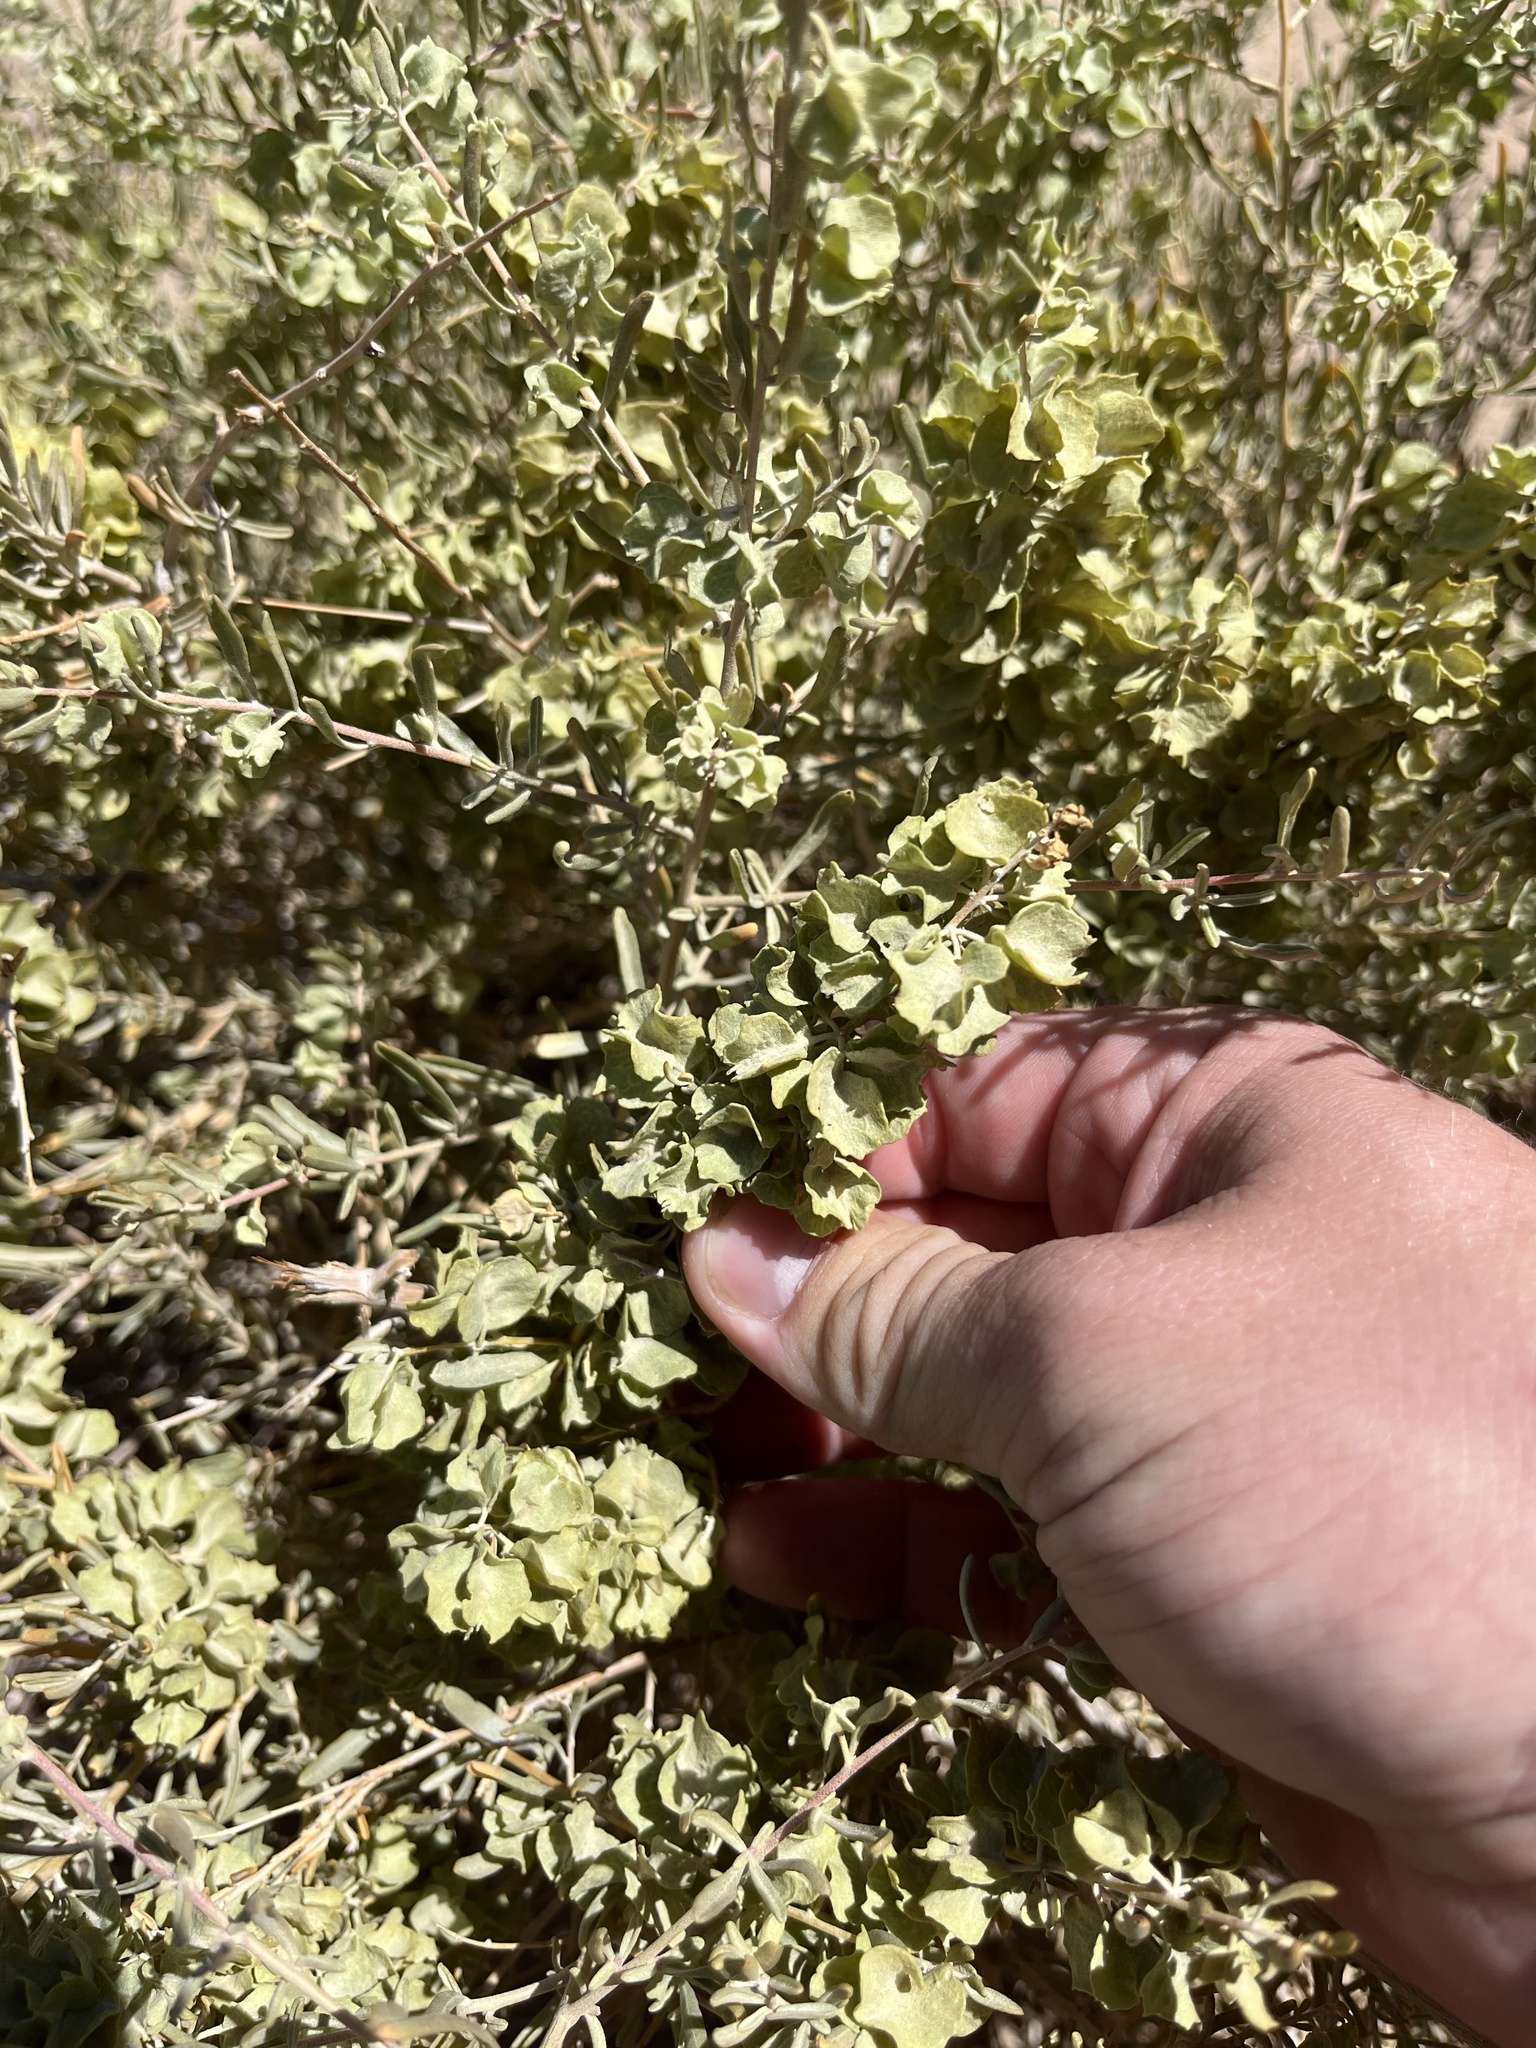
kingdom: Plantae
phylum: Tracheophyta
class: Magnoliopsida
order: Caryophyllales
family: Amaranthaceae
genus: Atriplex
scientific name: Atriplex canescens
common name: Four-wing saltbush
